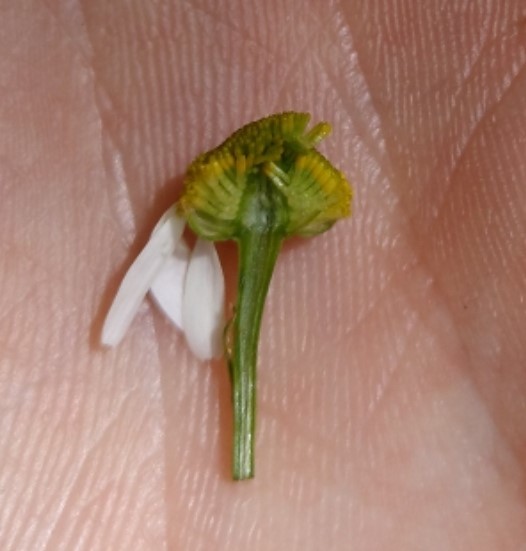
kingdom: Plantae
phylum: Tracheophyta
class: Magnoliopsida
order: Asterales
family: Asteraceae
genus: Matricaria
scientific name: Matricaria chamomilla
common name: Scented mayweed
